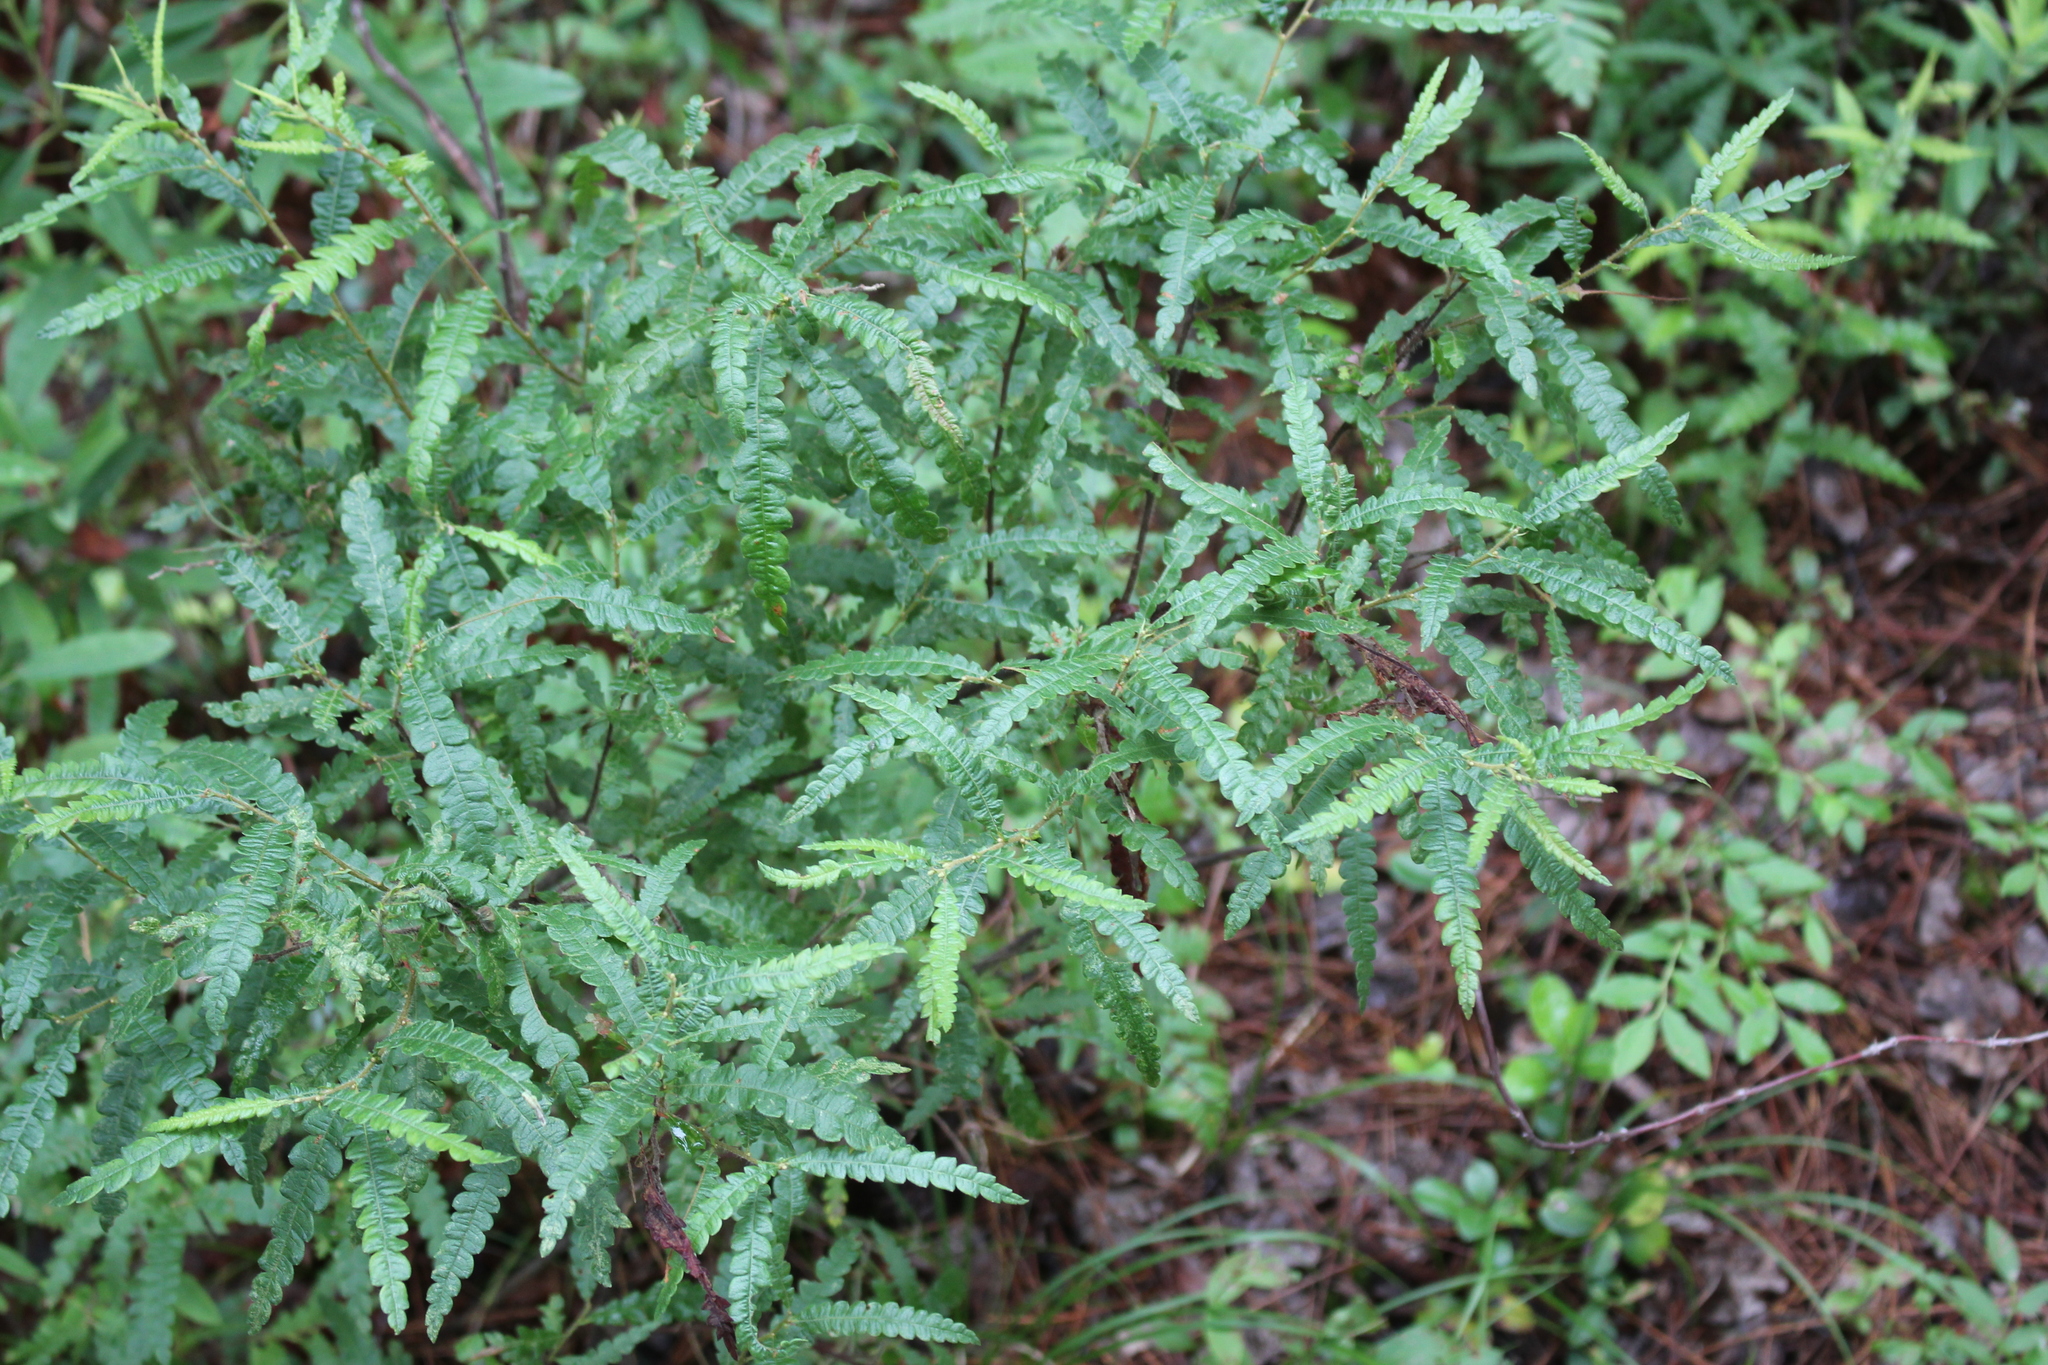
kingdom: Plantae
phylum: Tracheophyta
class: Magnoliopsida
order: Fagales
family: Myricaceae
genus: Comptonia
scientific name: Comptonia peregrina
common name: Sweet-fern
